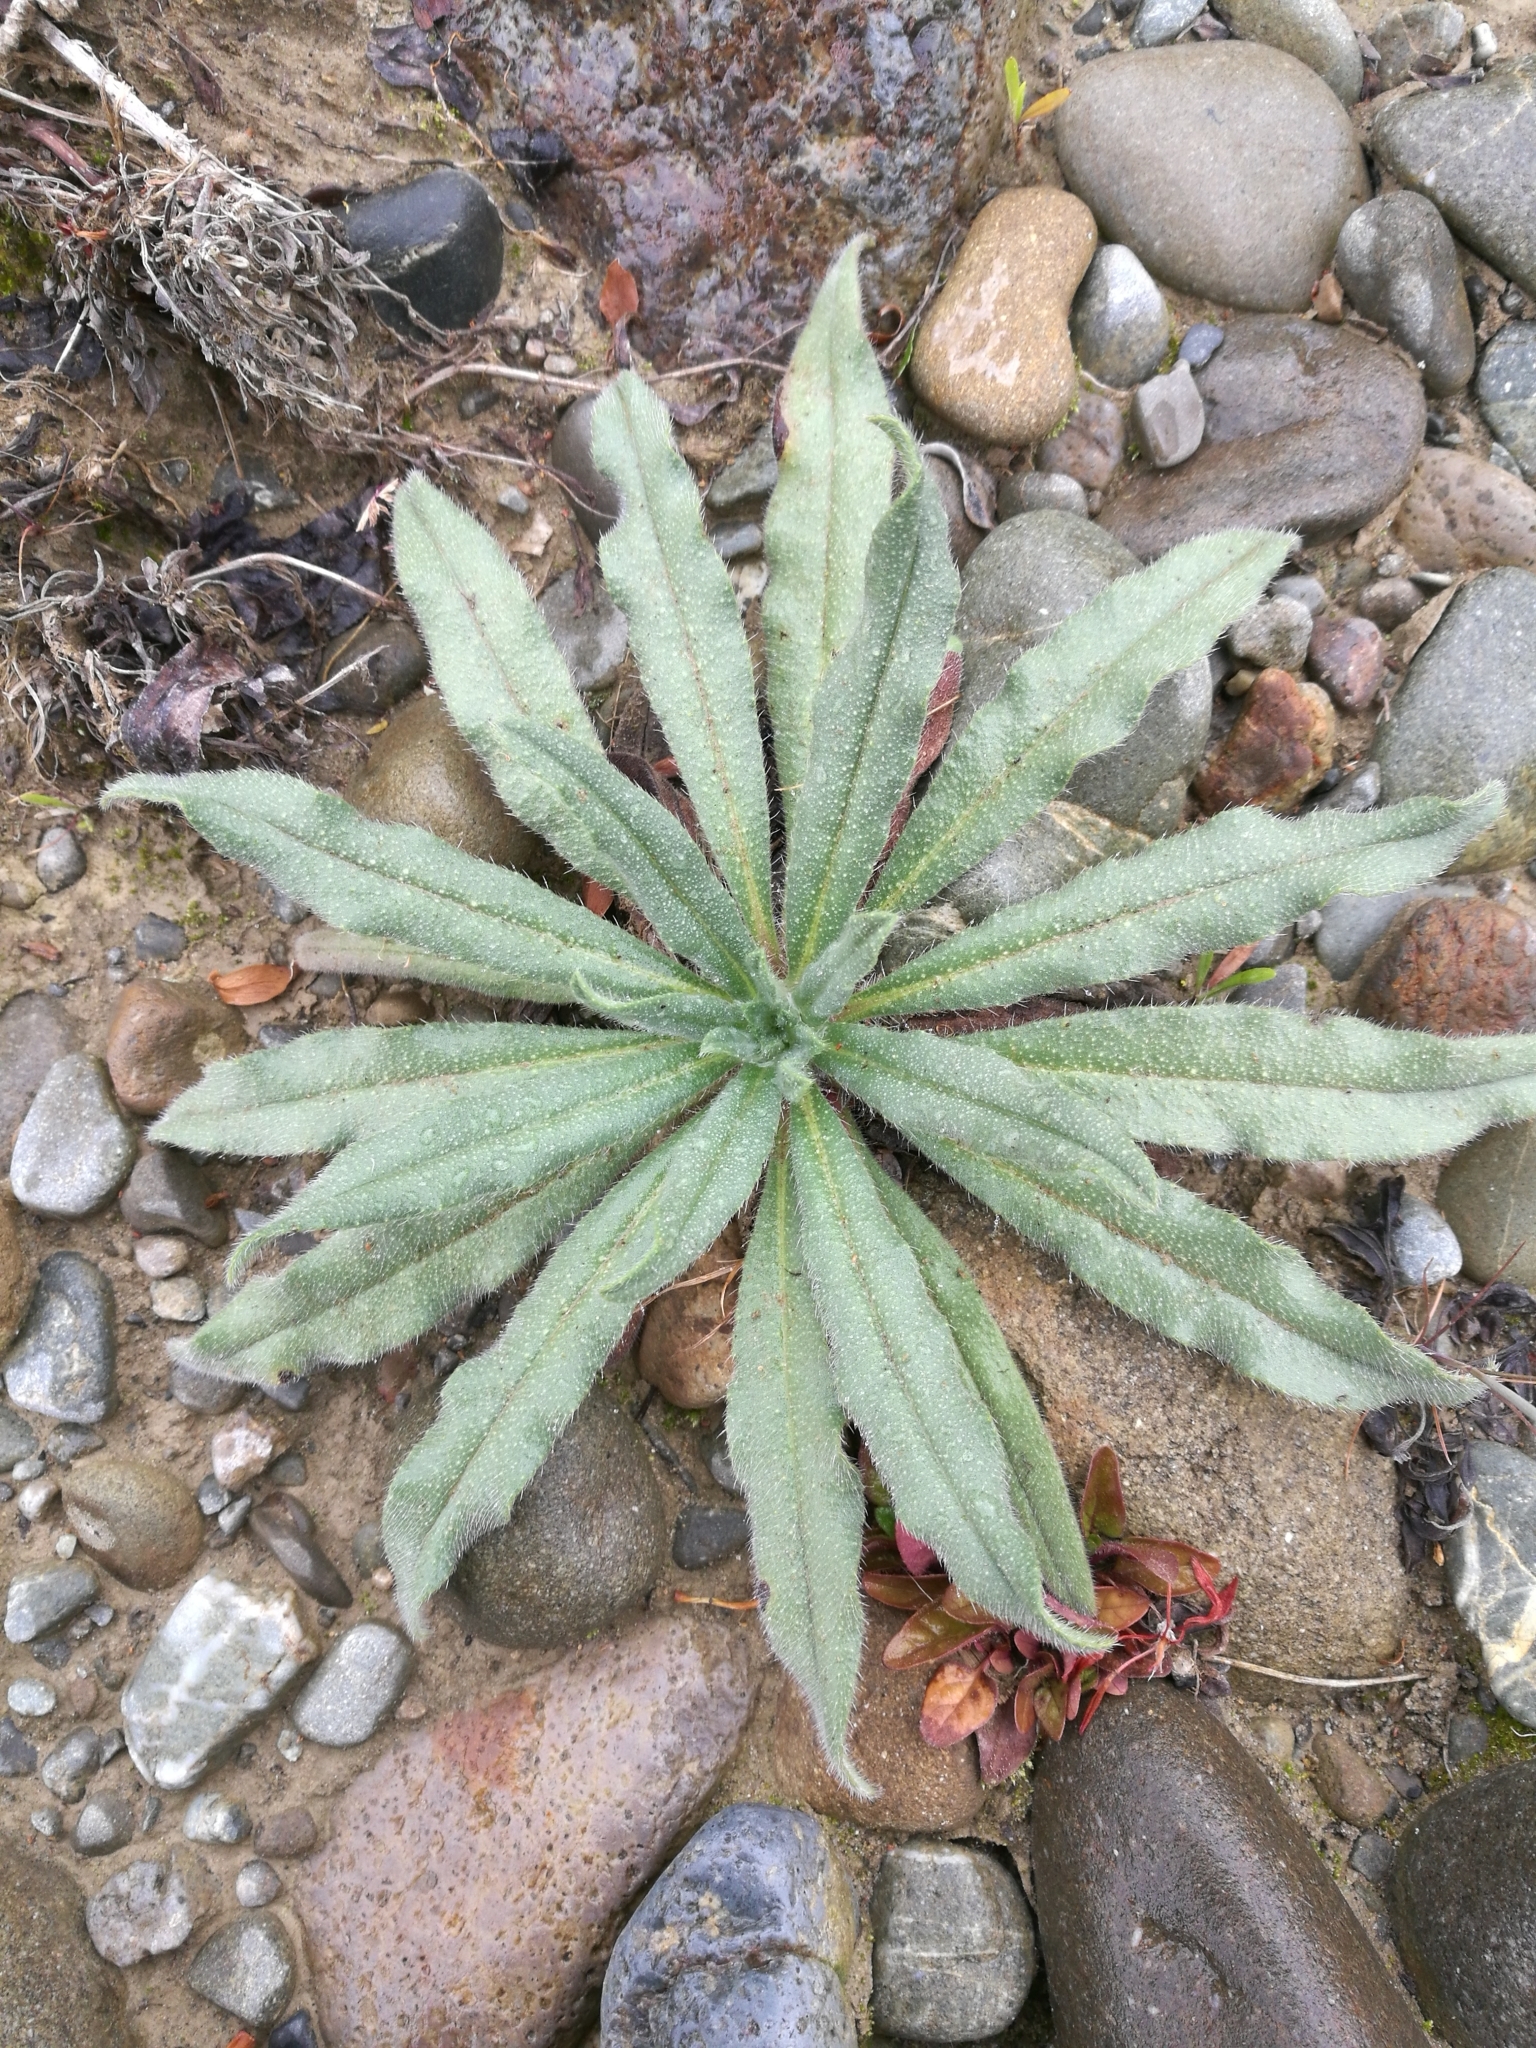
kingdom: Plantae
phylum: Tracheophyta
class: Magnoliopsida
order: Boraginales
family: Boraginaceae
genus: Echium
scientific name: Echium vulgare
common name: Common viper's bugloss
